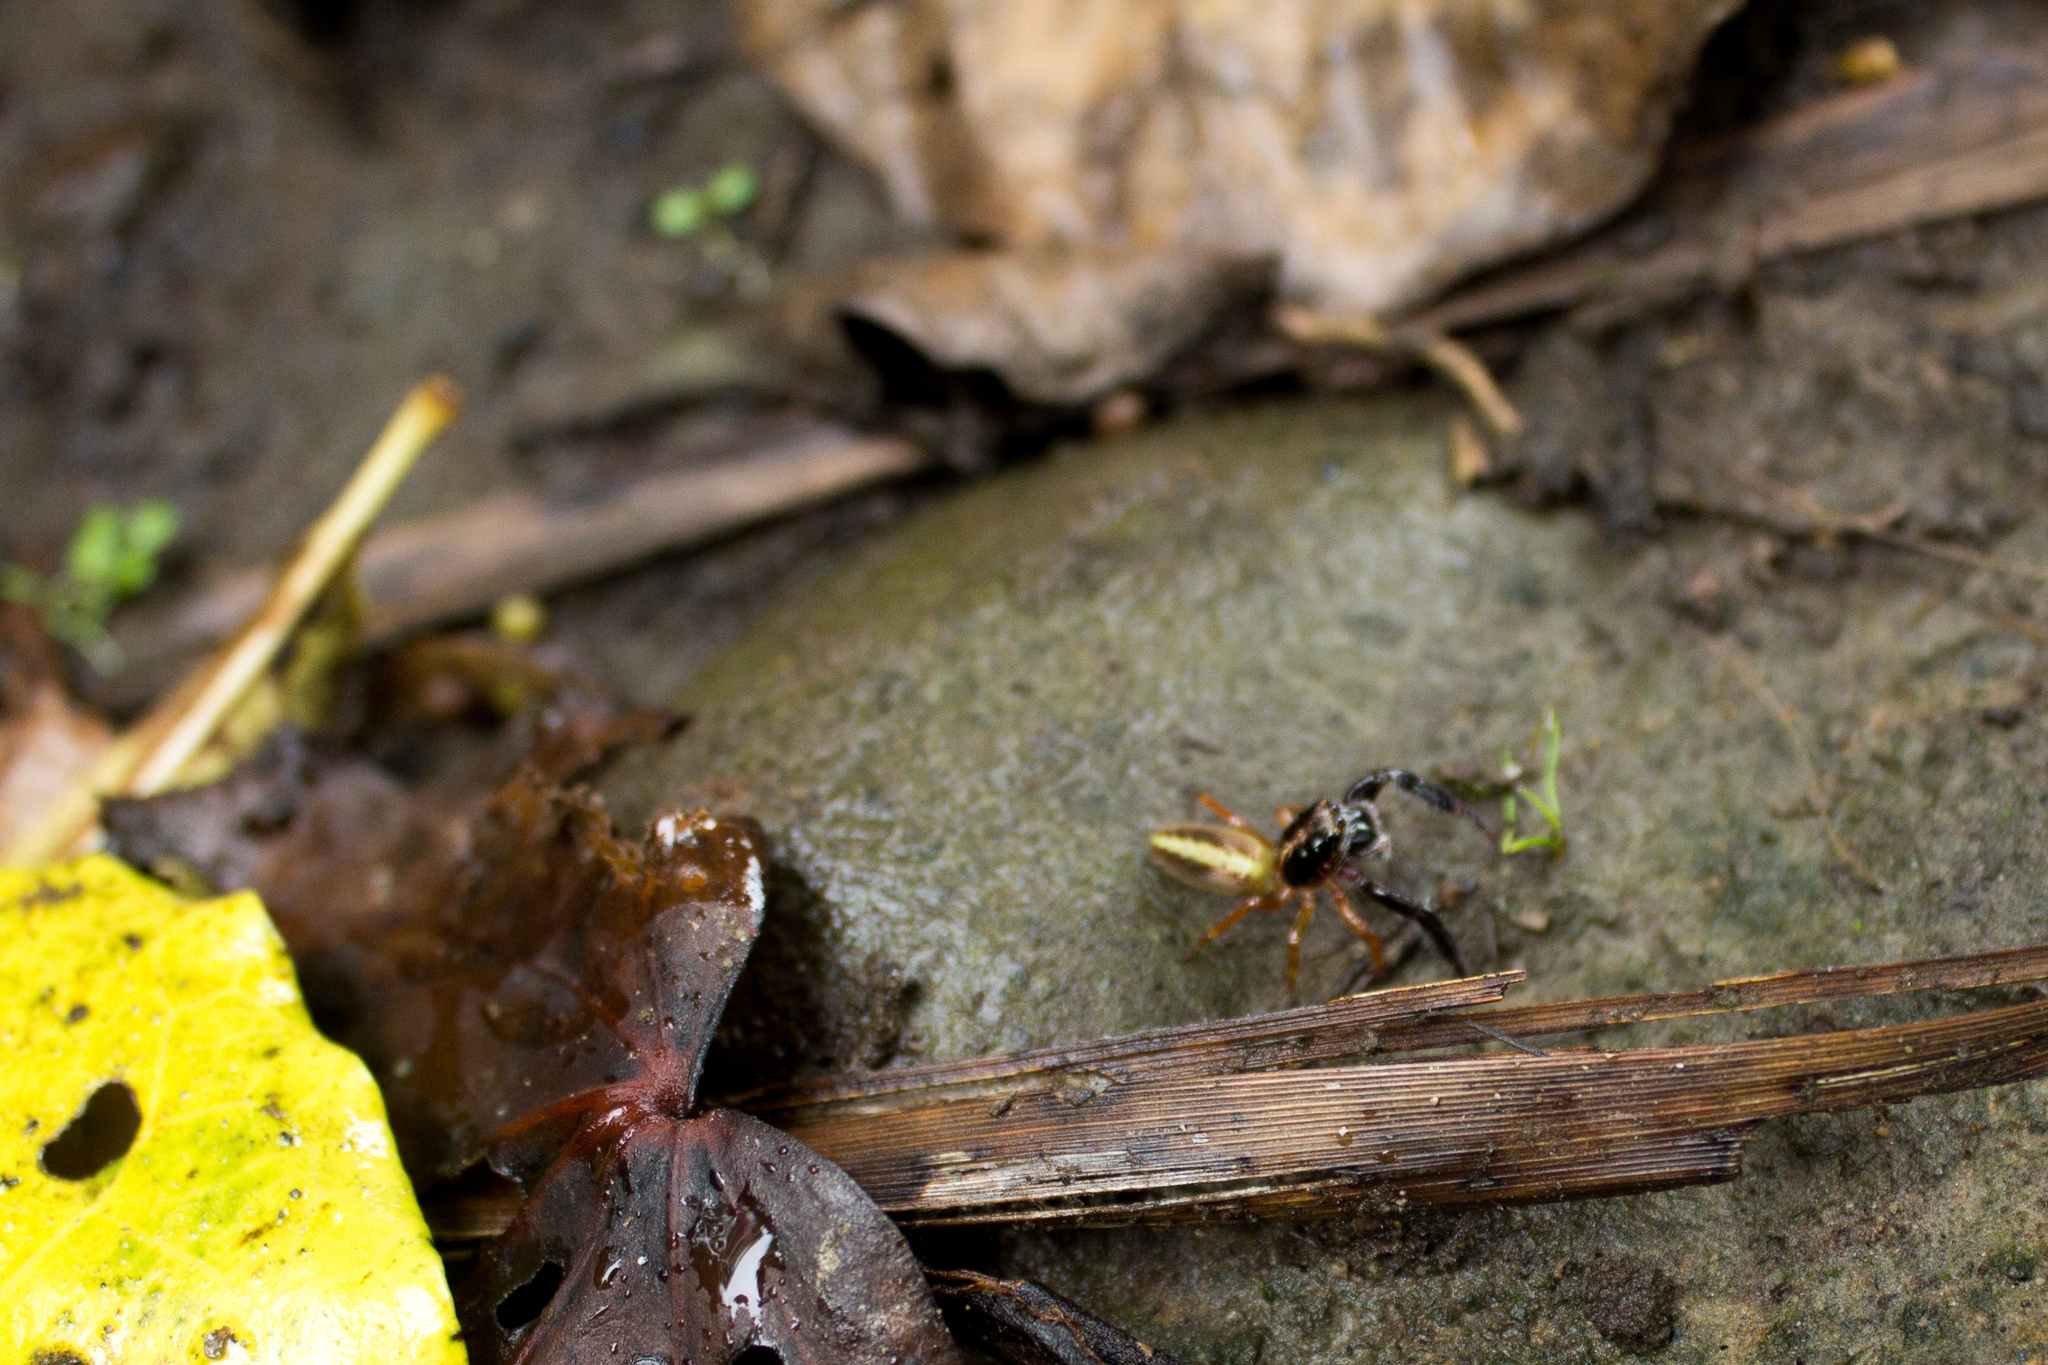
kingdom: Animalia
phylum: Arthropoda
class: Arachnida
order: Araneae
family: Salticidae
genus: Trite
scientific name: Trite planiceps
